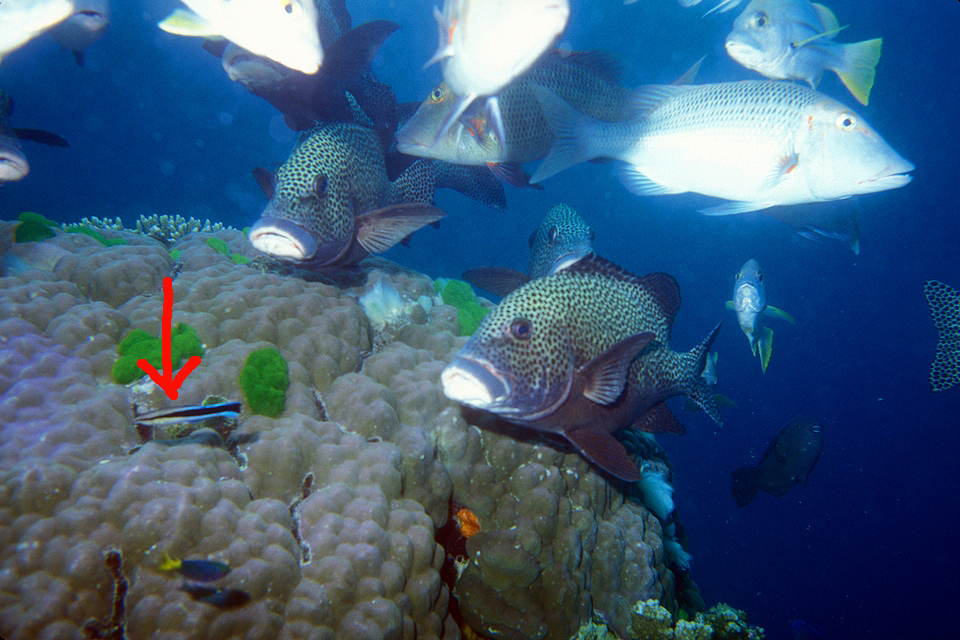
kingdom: Animalia
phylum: Chordata
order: Perciformes
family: Labridae
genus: Labroides
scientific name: Labroides dimidiatus
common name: Blue diesel wrasse
